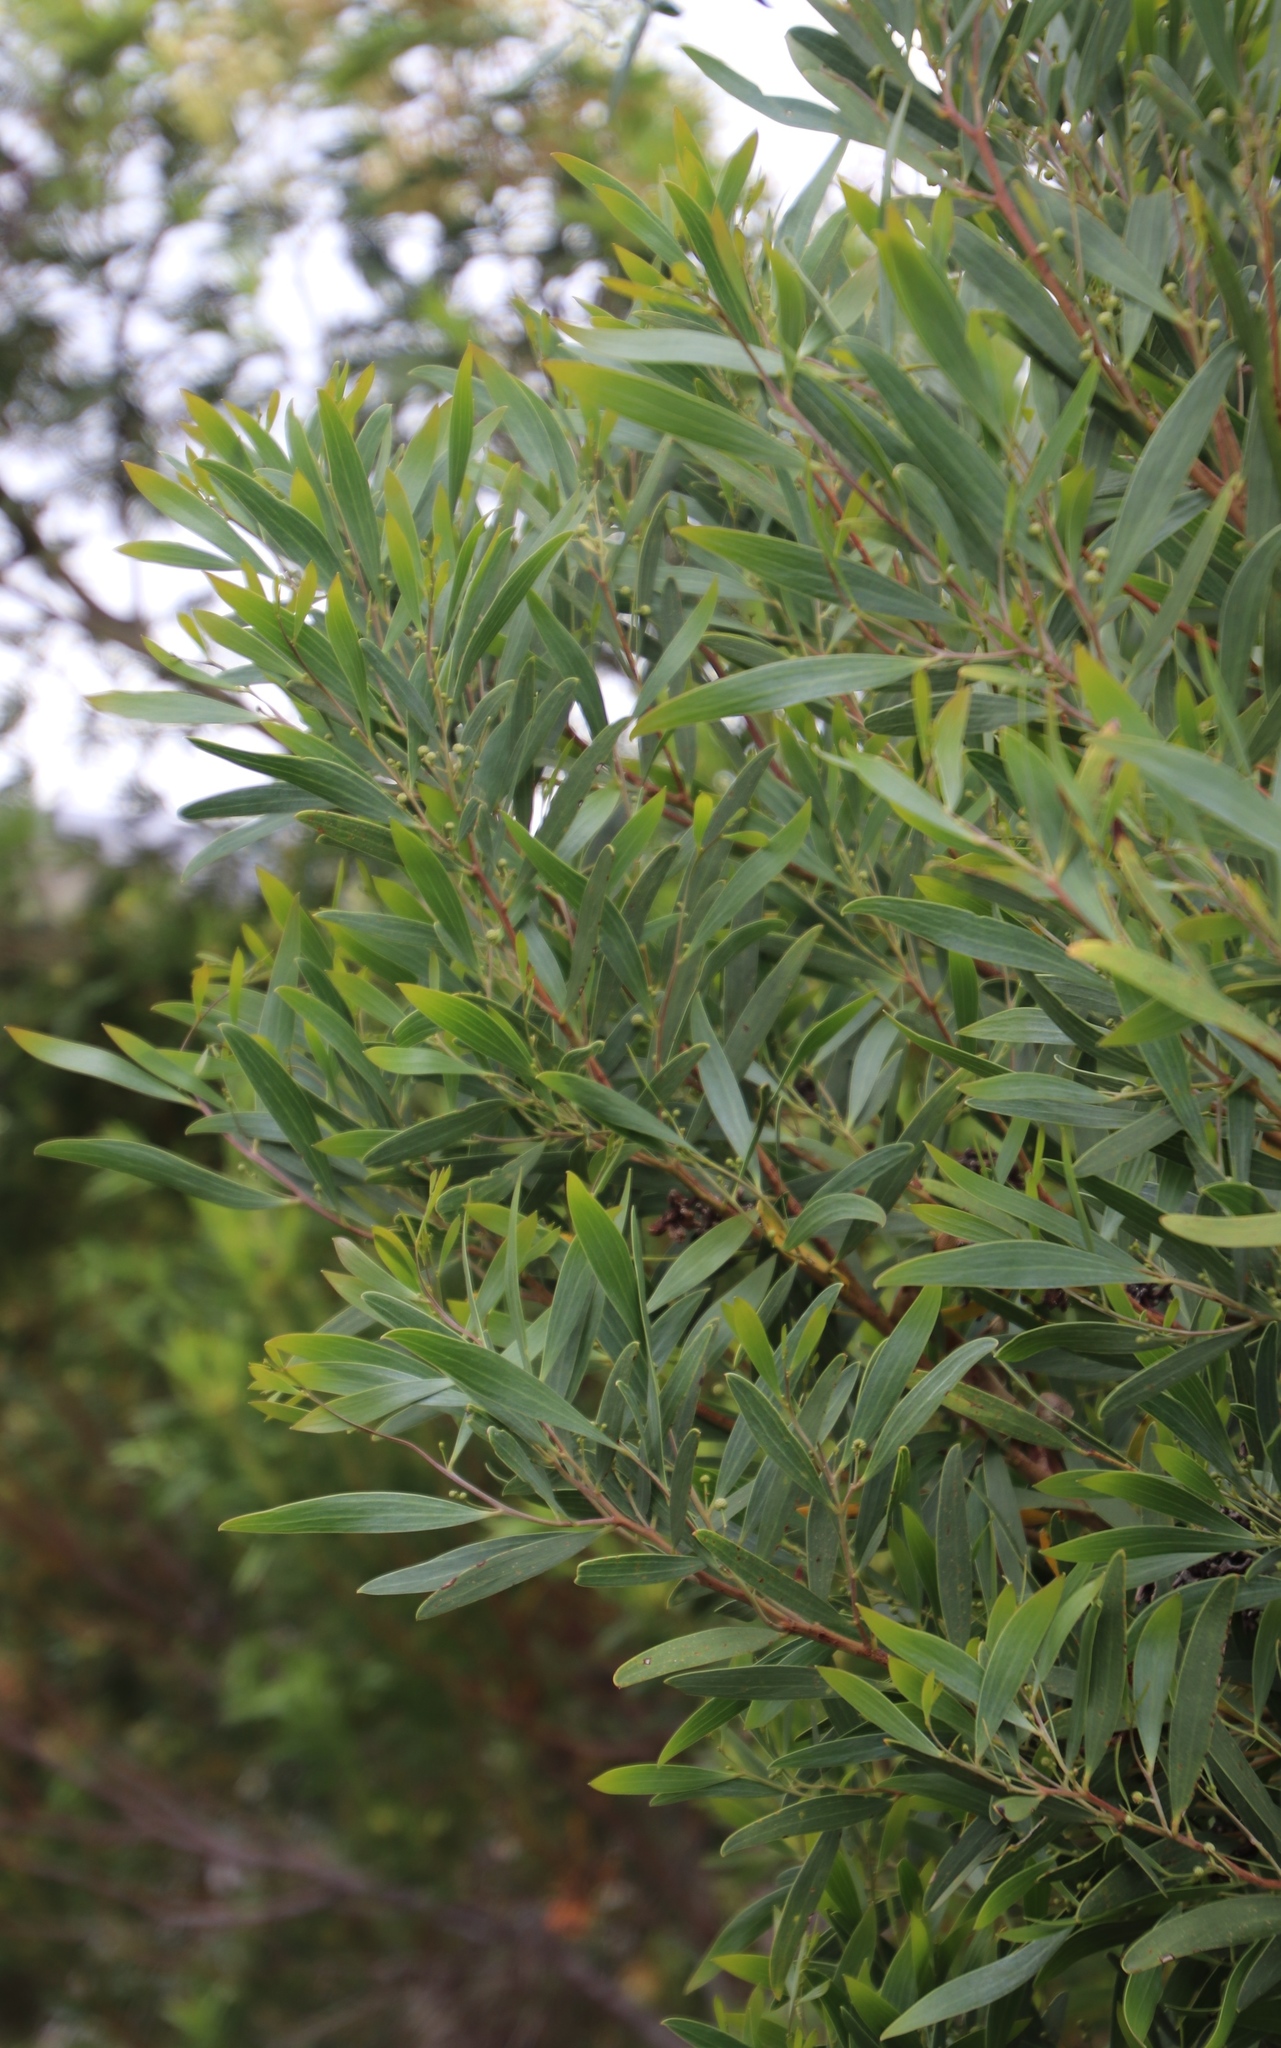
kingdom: Plantae
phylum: Tracheophyta
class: Magnoliopsida
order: Fabales
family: Fabaceae
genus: Acacia
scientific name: Acacia cyclops
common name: Coastal wattle
